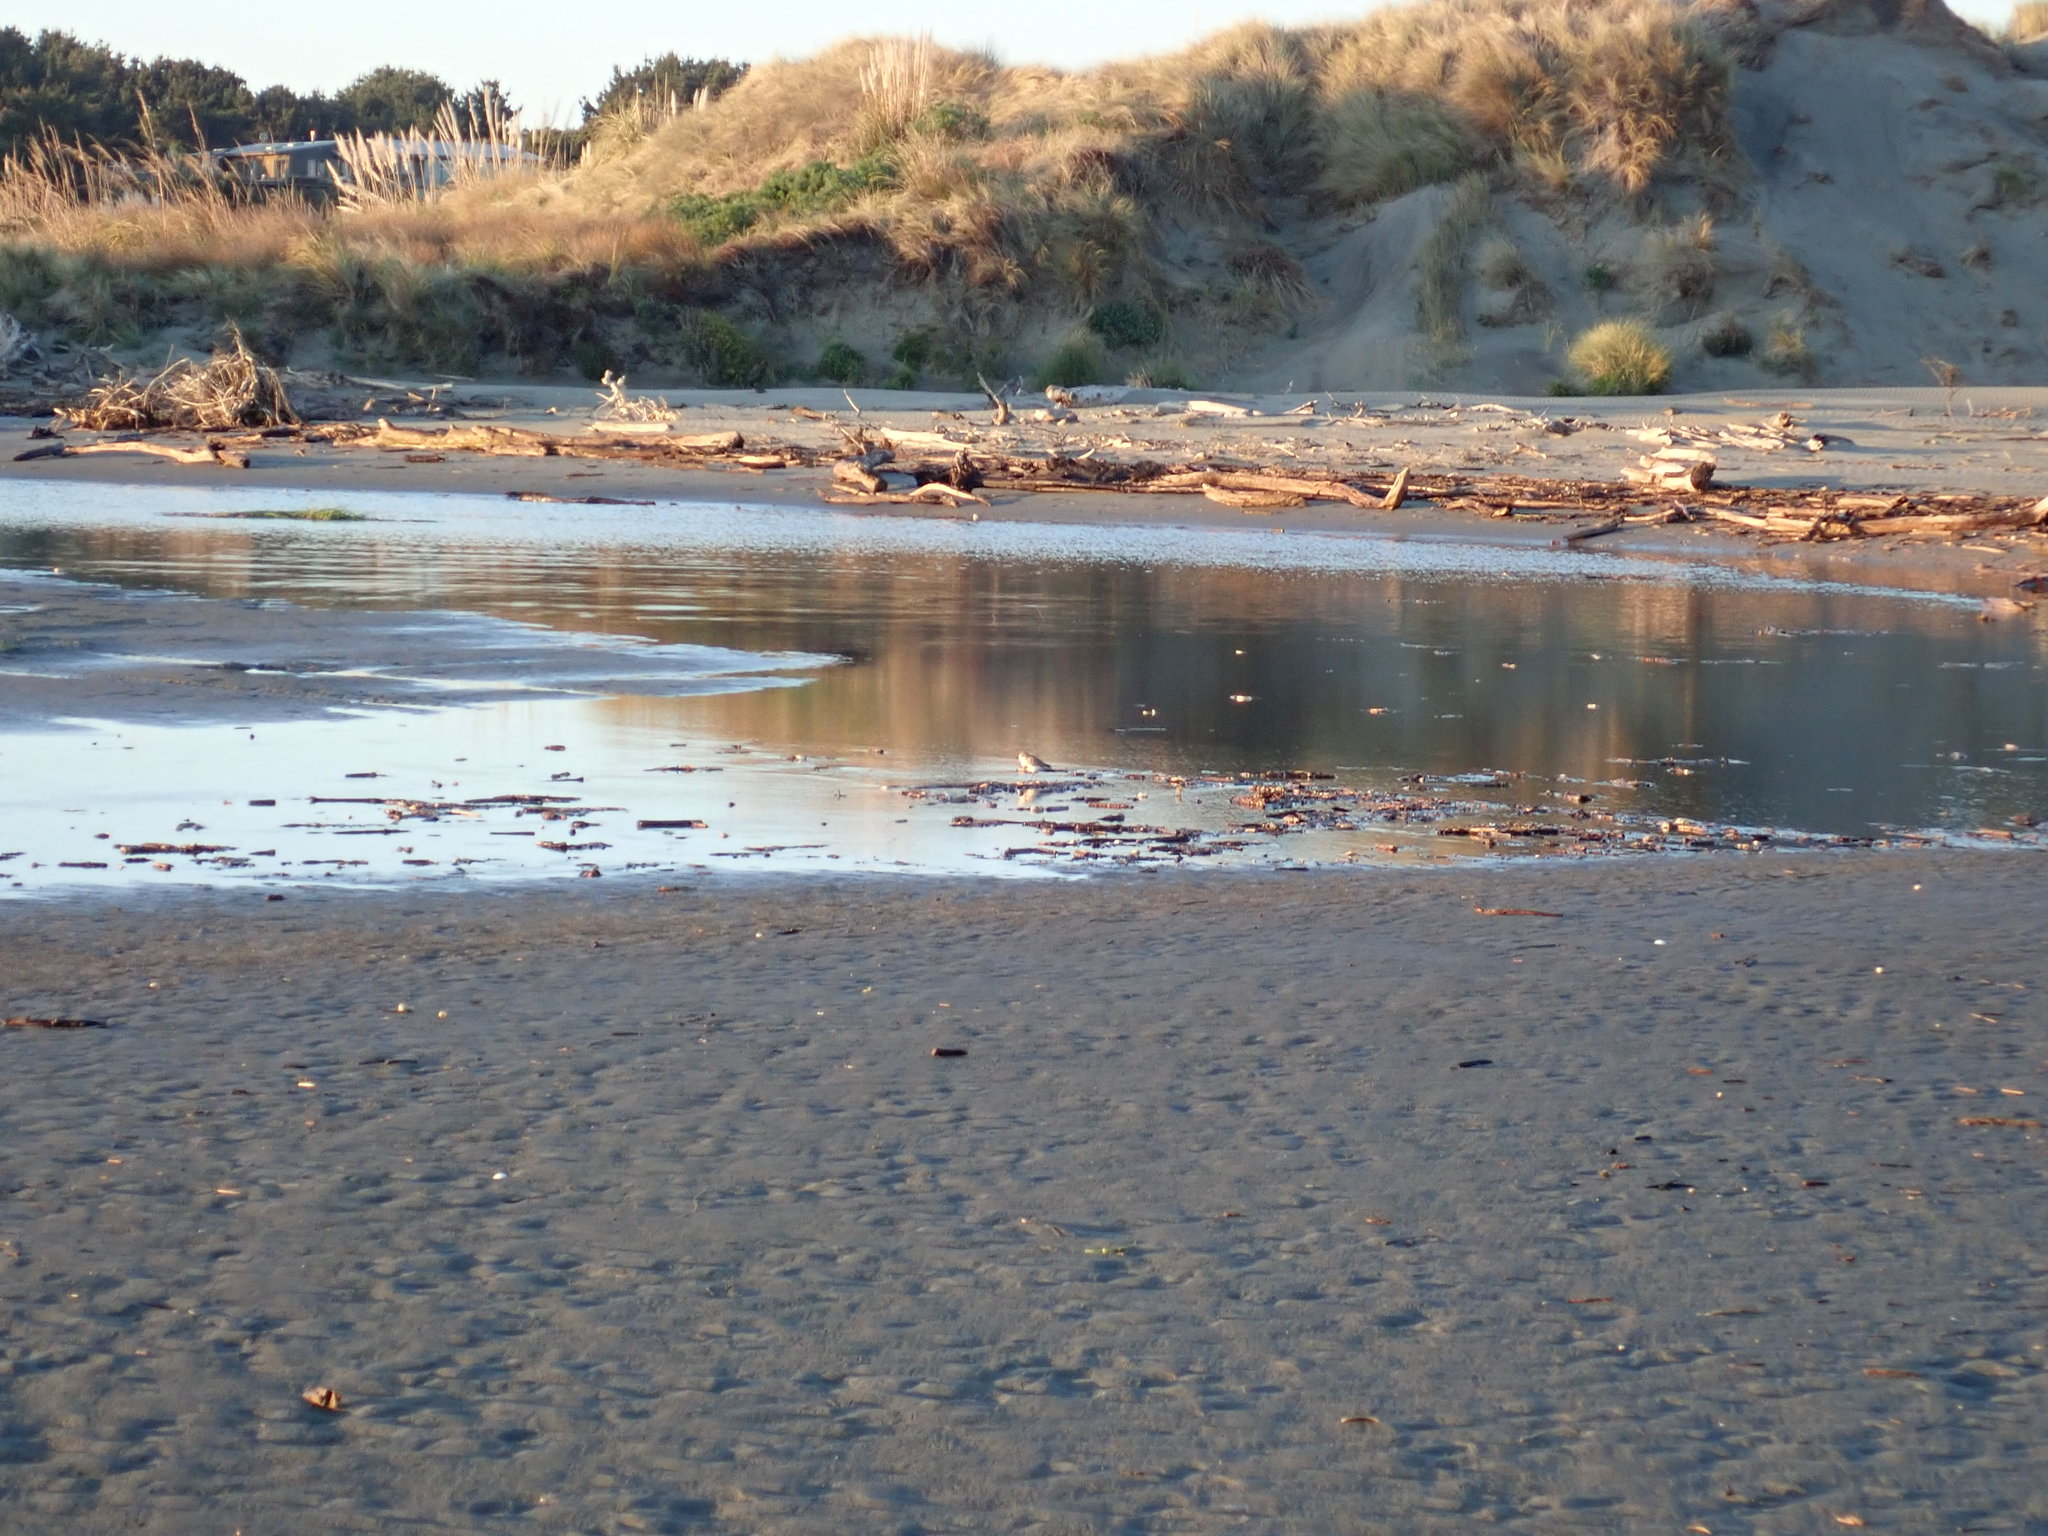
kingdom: Animalia
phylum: Chordata
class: Aves
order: Charadriiformes
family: Charadriidae
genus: Anarhynchus
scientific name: Anarhynchus
